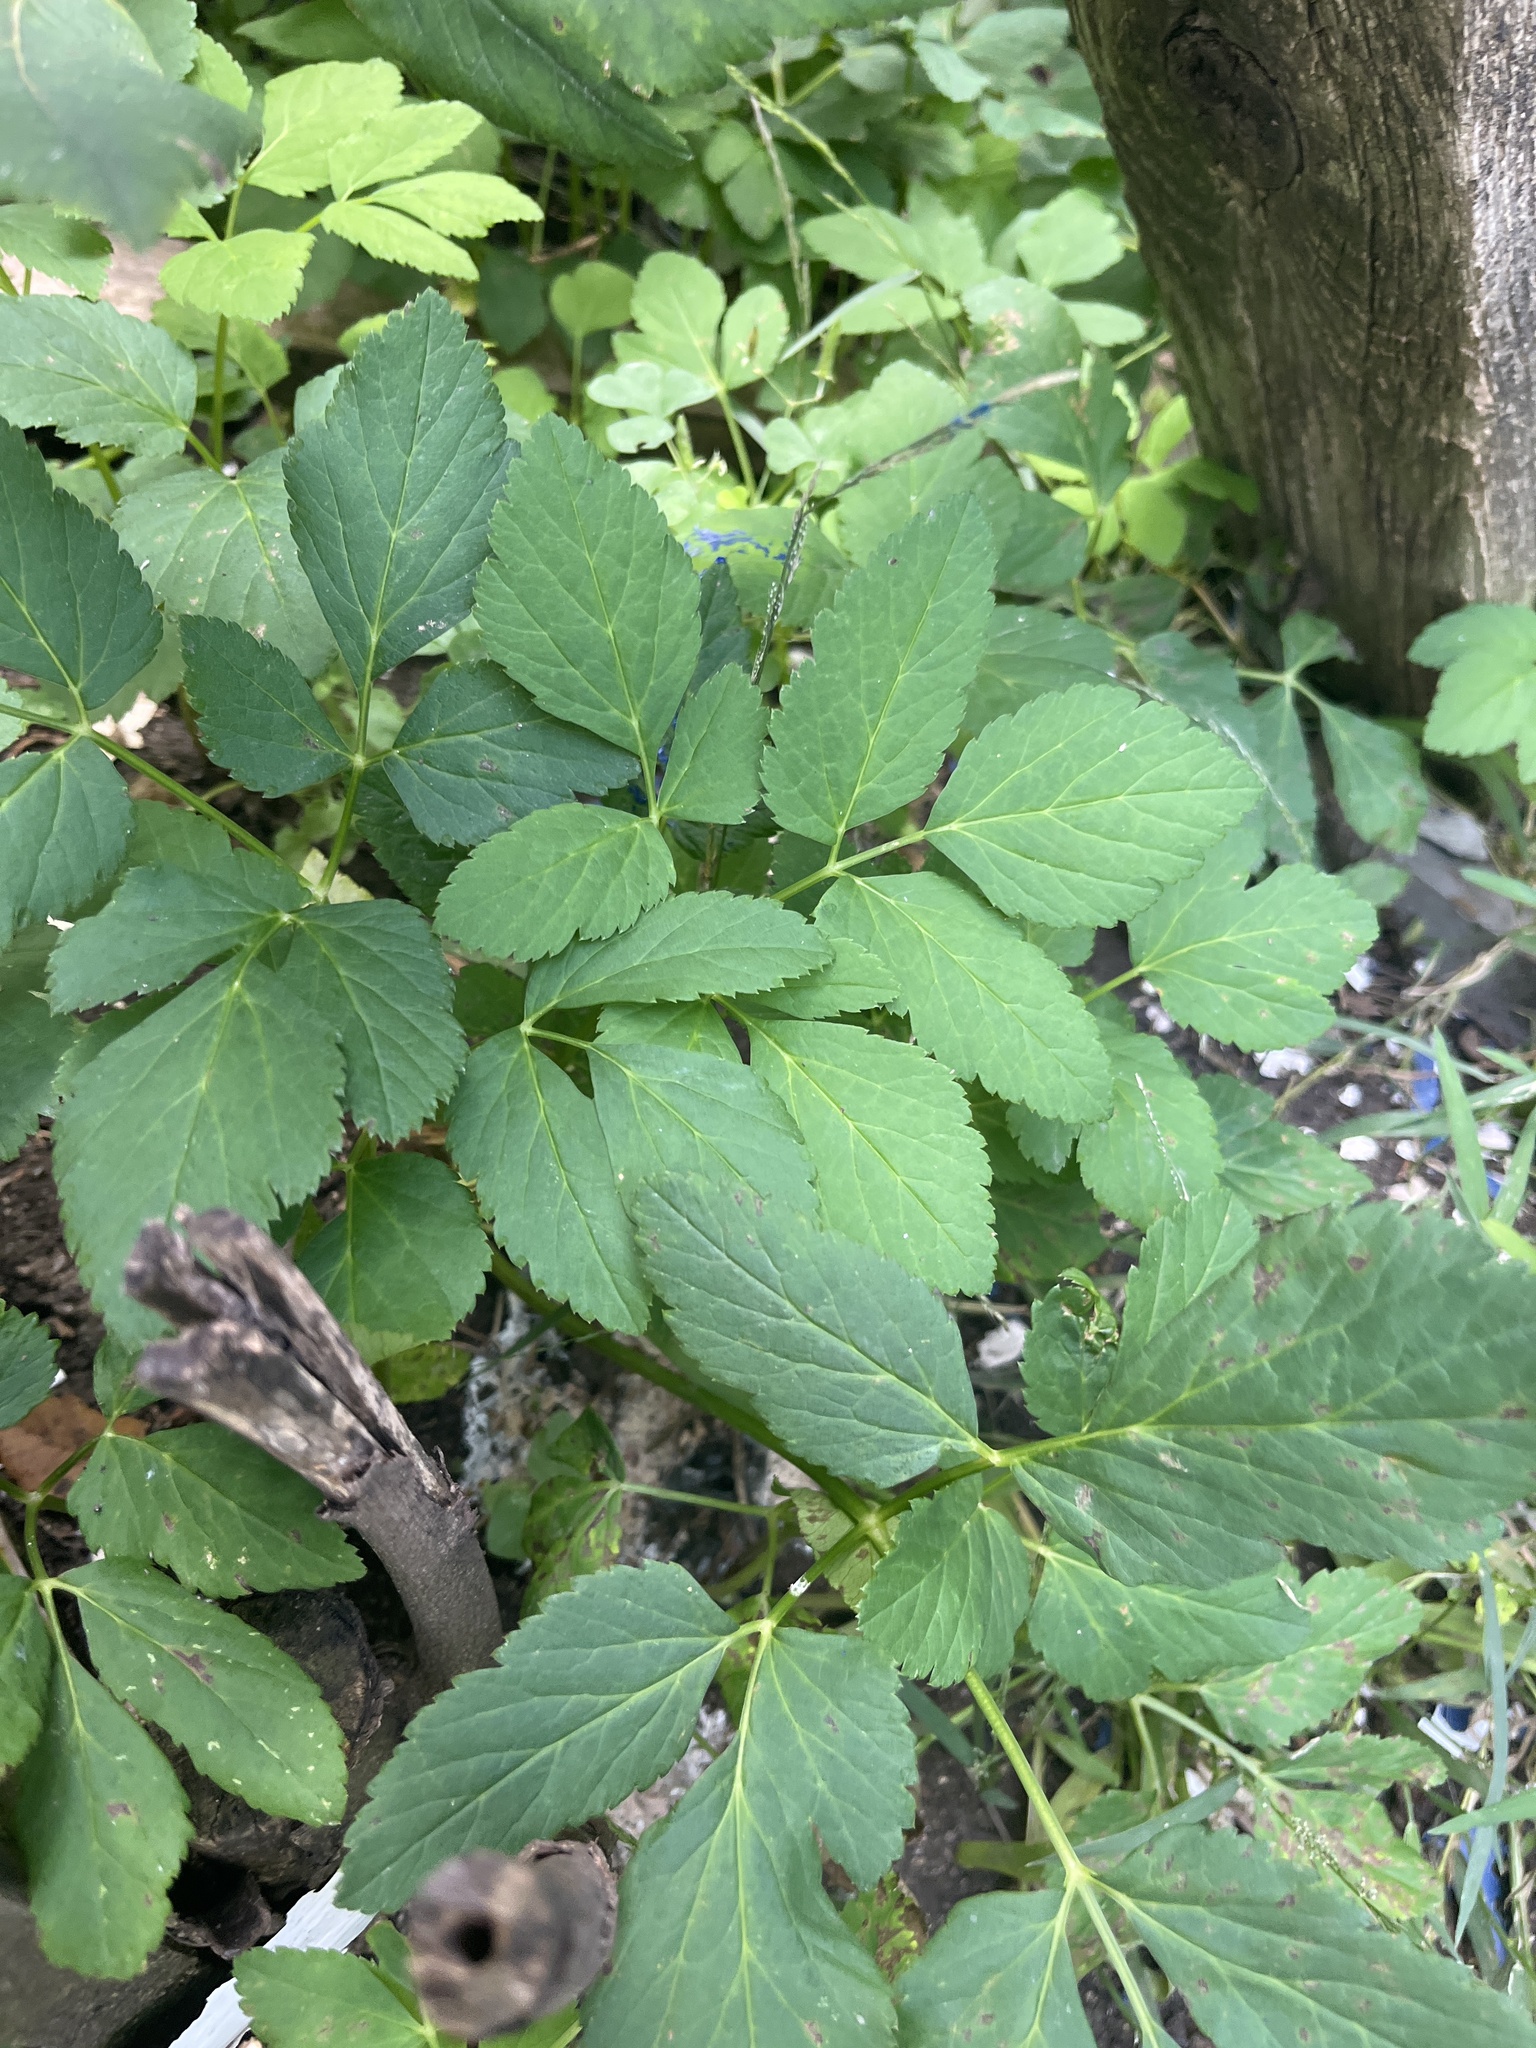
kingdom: Plantae
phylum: Tracheophyta
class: Magnoliopsida
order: Apiales
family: Apiaceae
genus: Aegopodium
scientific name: Aegopodium podagraria
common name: Ground-elder
